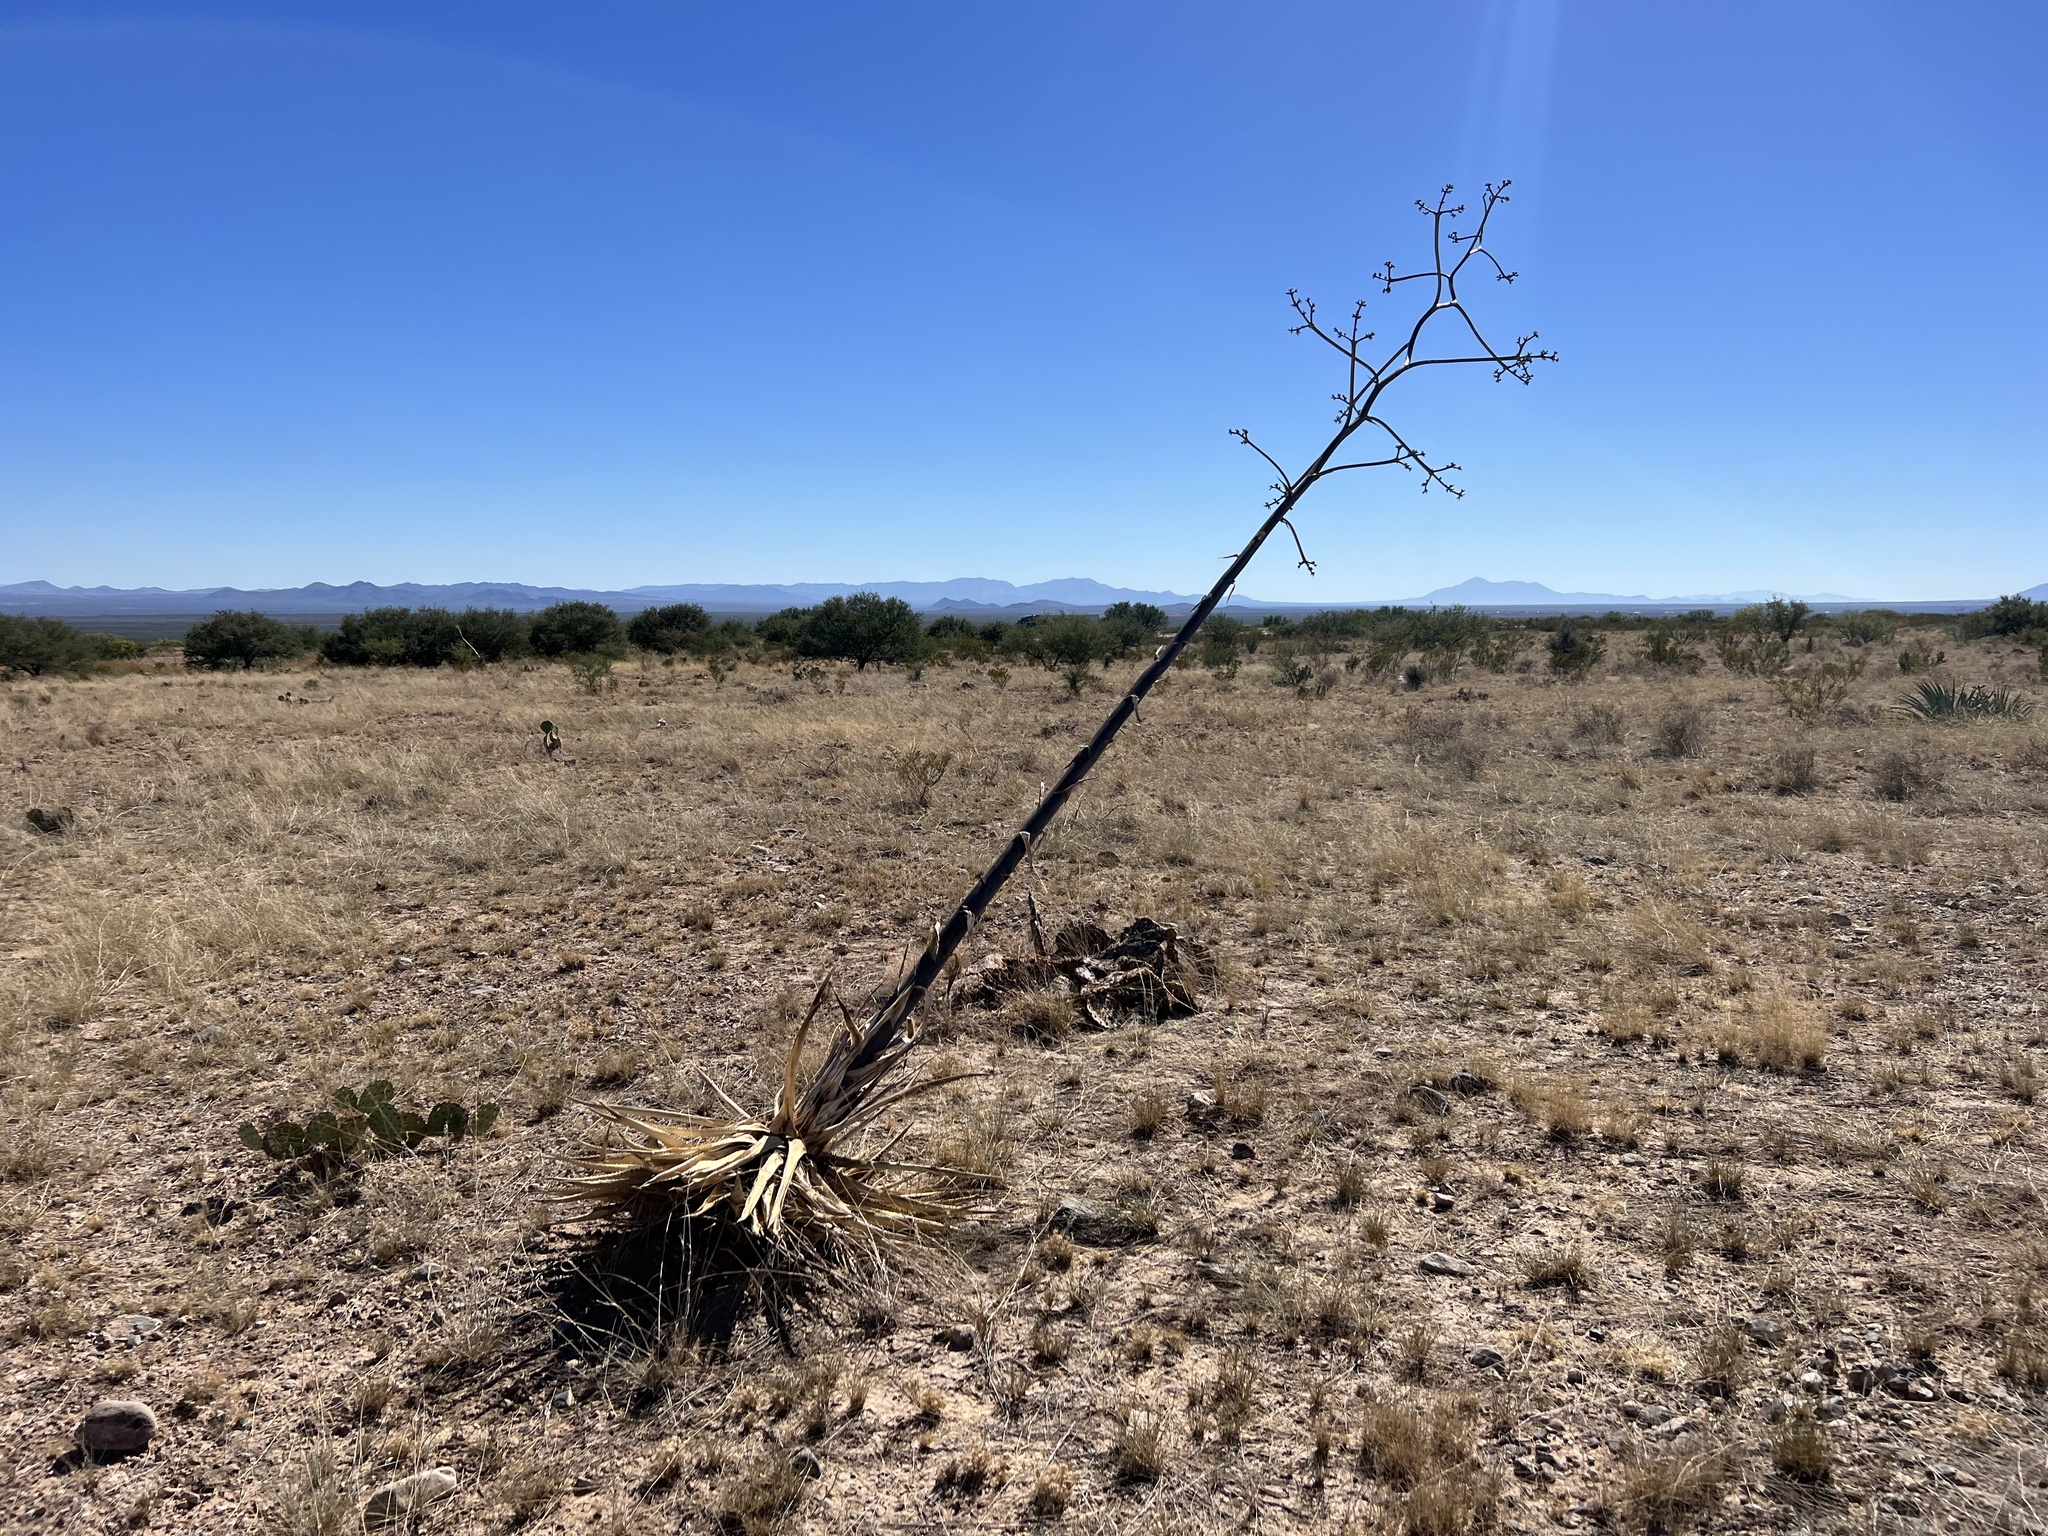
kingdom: Plantae
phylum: Tracheophyta
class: Liliopsida
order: Asparagales
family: Asparagaceae
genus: Agave
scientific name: Agave palmeri
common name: Palmer agave
